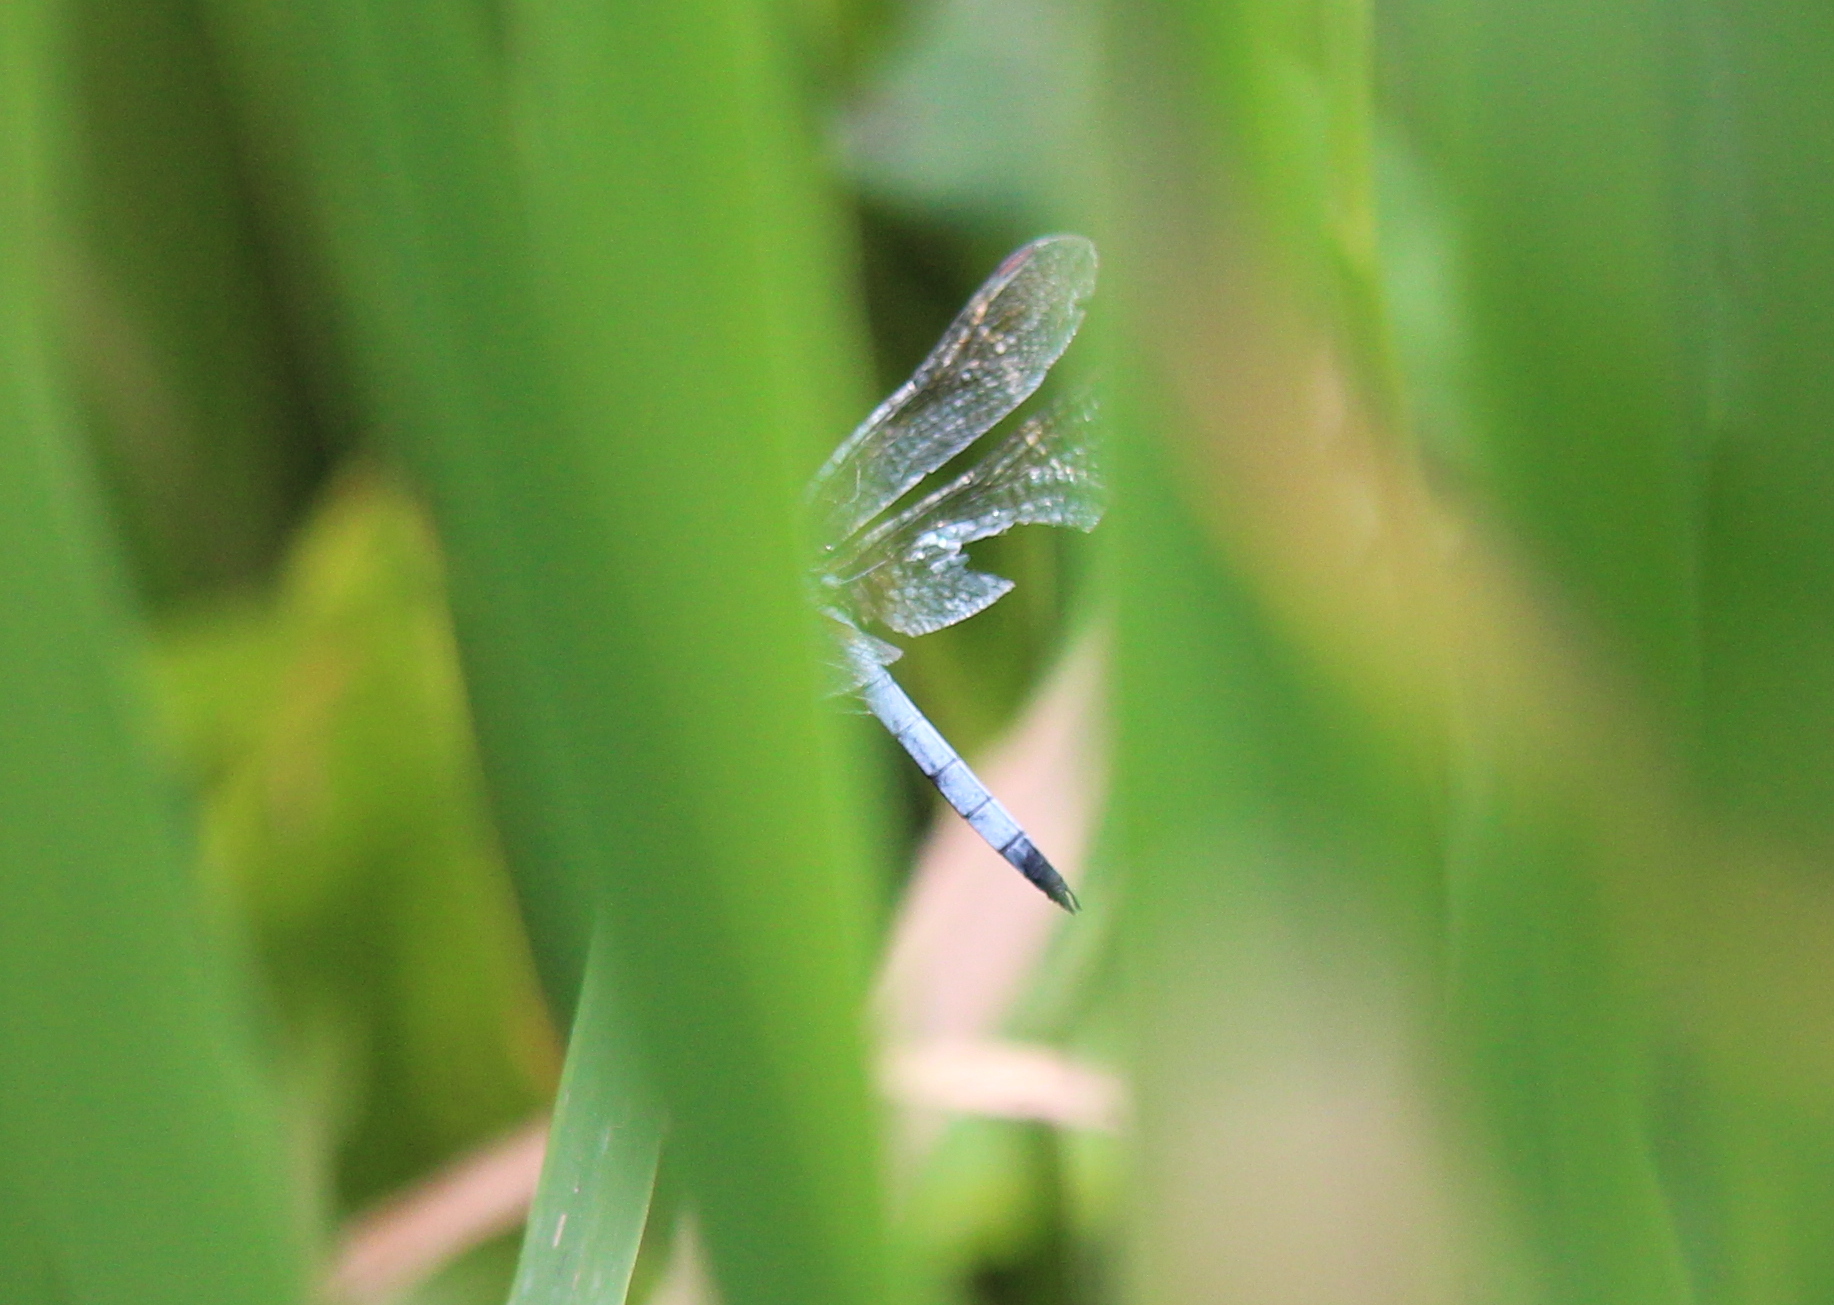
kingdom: Animalia
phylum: Arthropoda
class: Insecta
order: Odonata
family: Libellulidae
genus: Pachydiplax
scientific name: Pachydiplax longipennis
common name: Blue dasher
